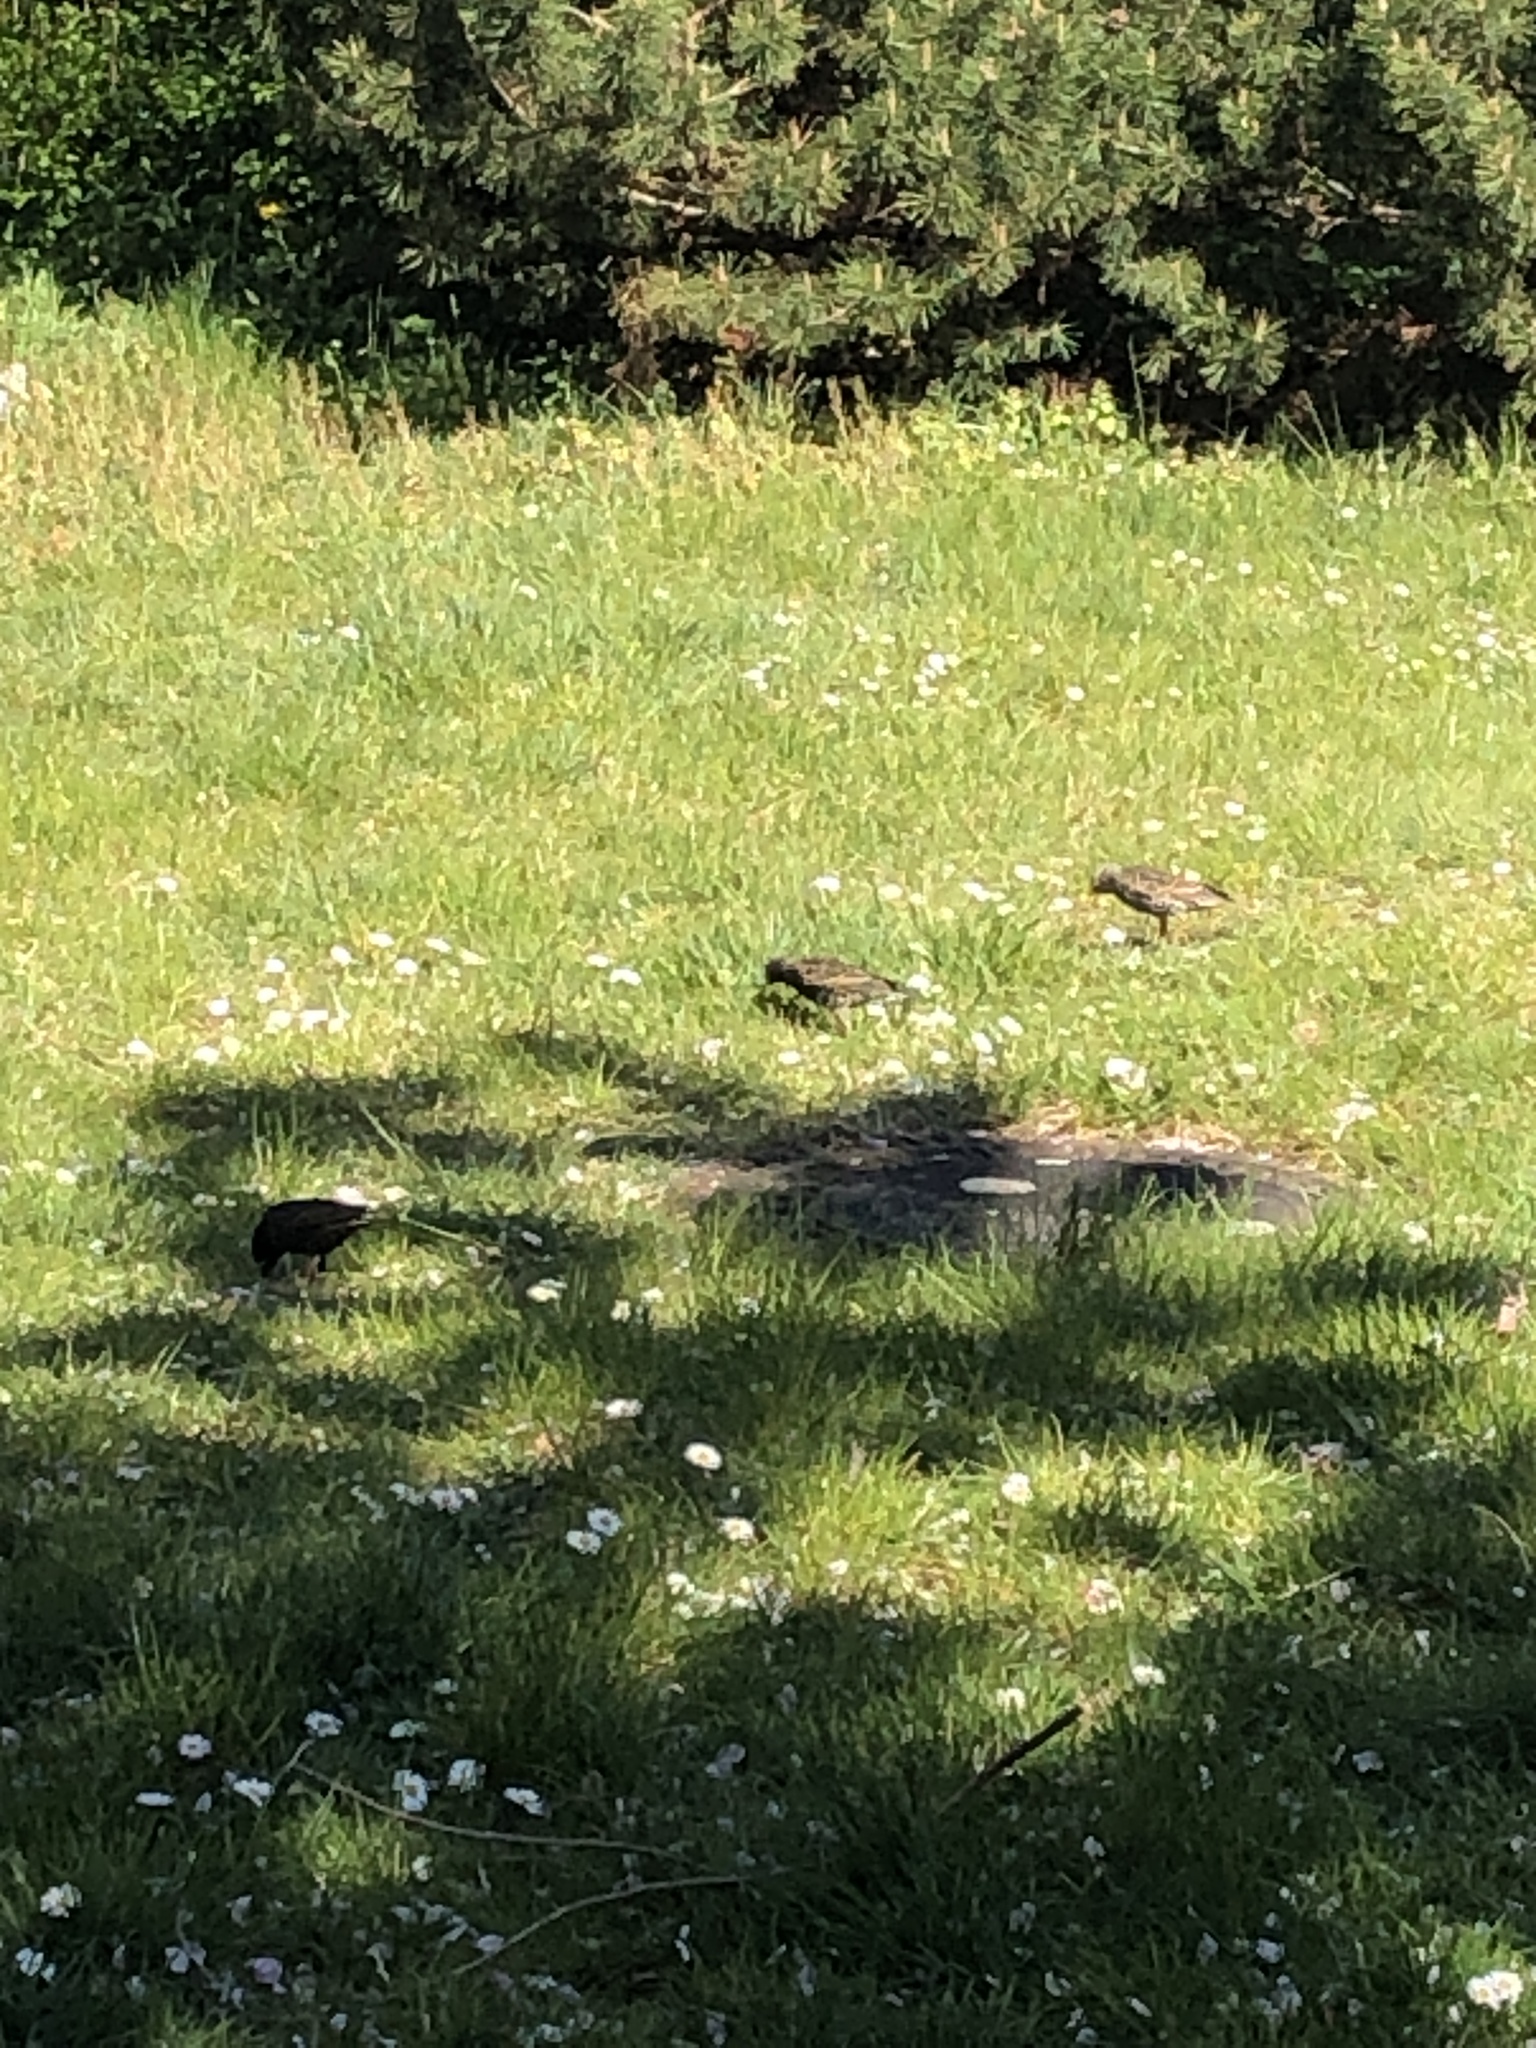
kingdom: Animalia
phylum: Chordata
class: Aves
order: Passeriformes
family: Sturnidae
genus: Sturnus
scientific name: Sturnus vulgaris
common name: Common starling
